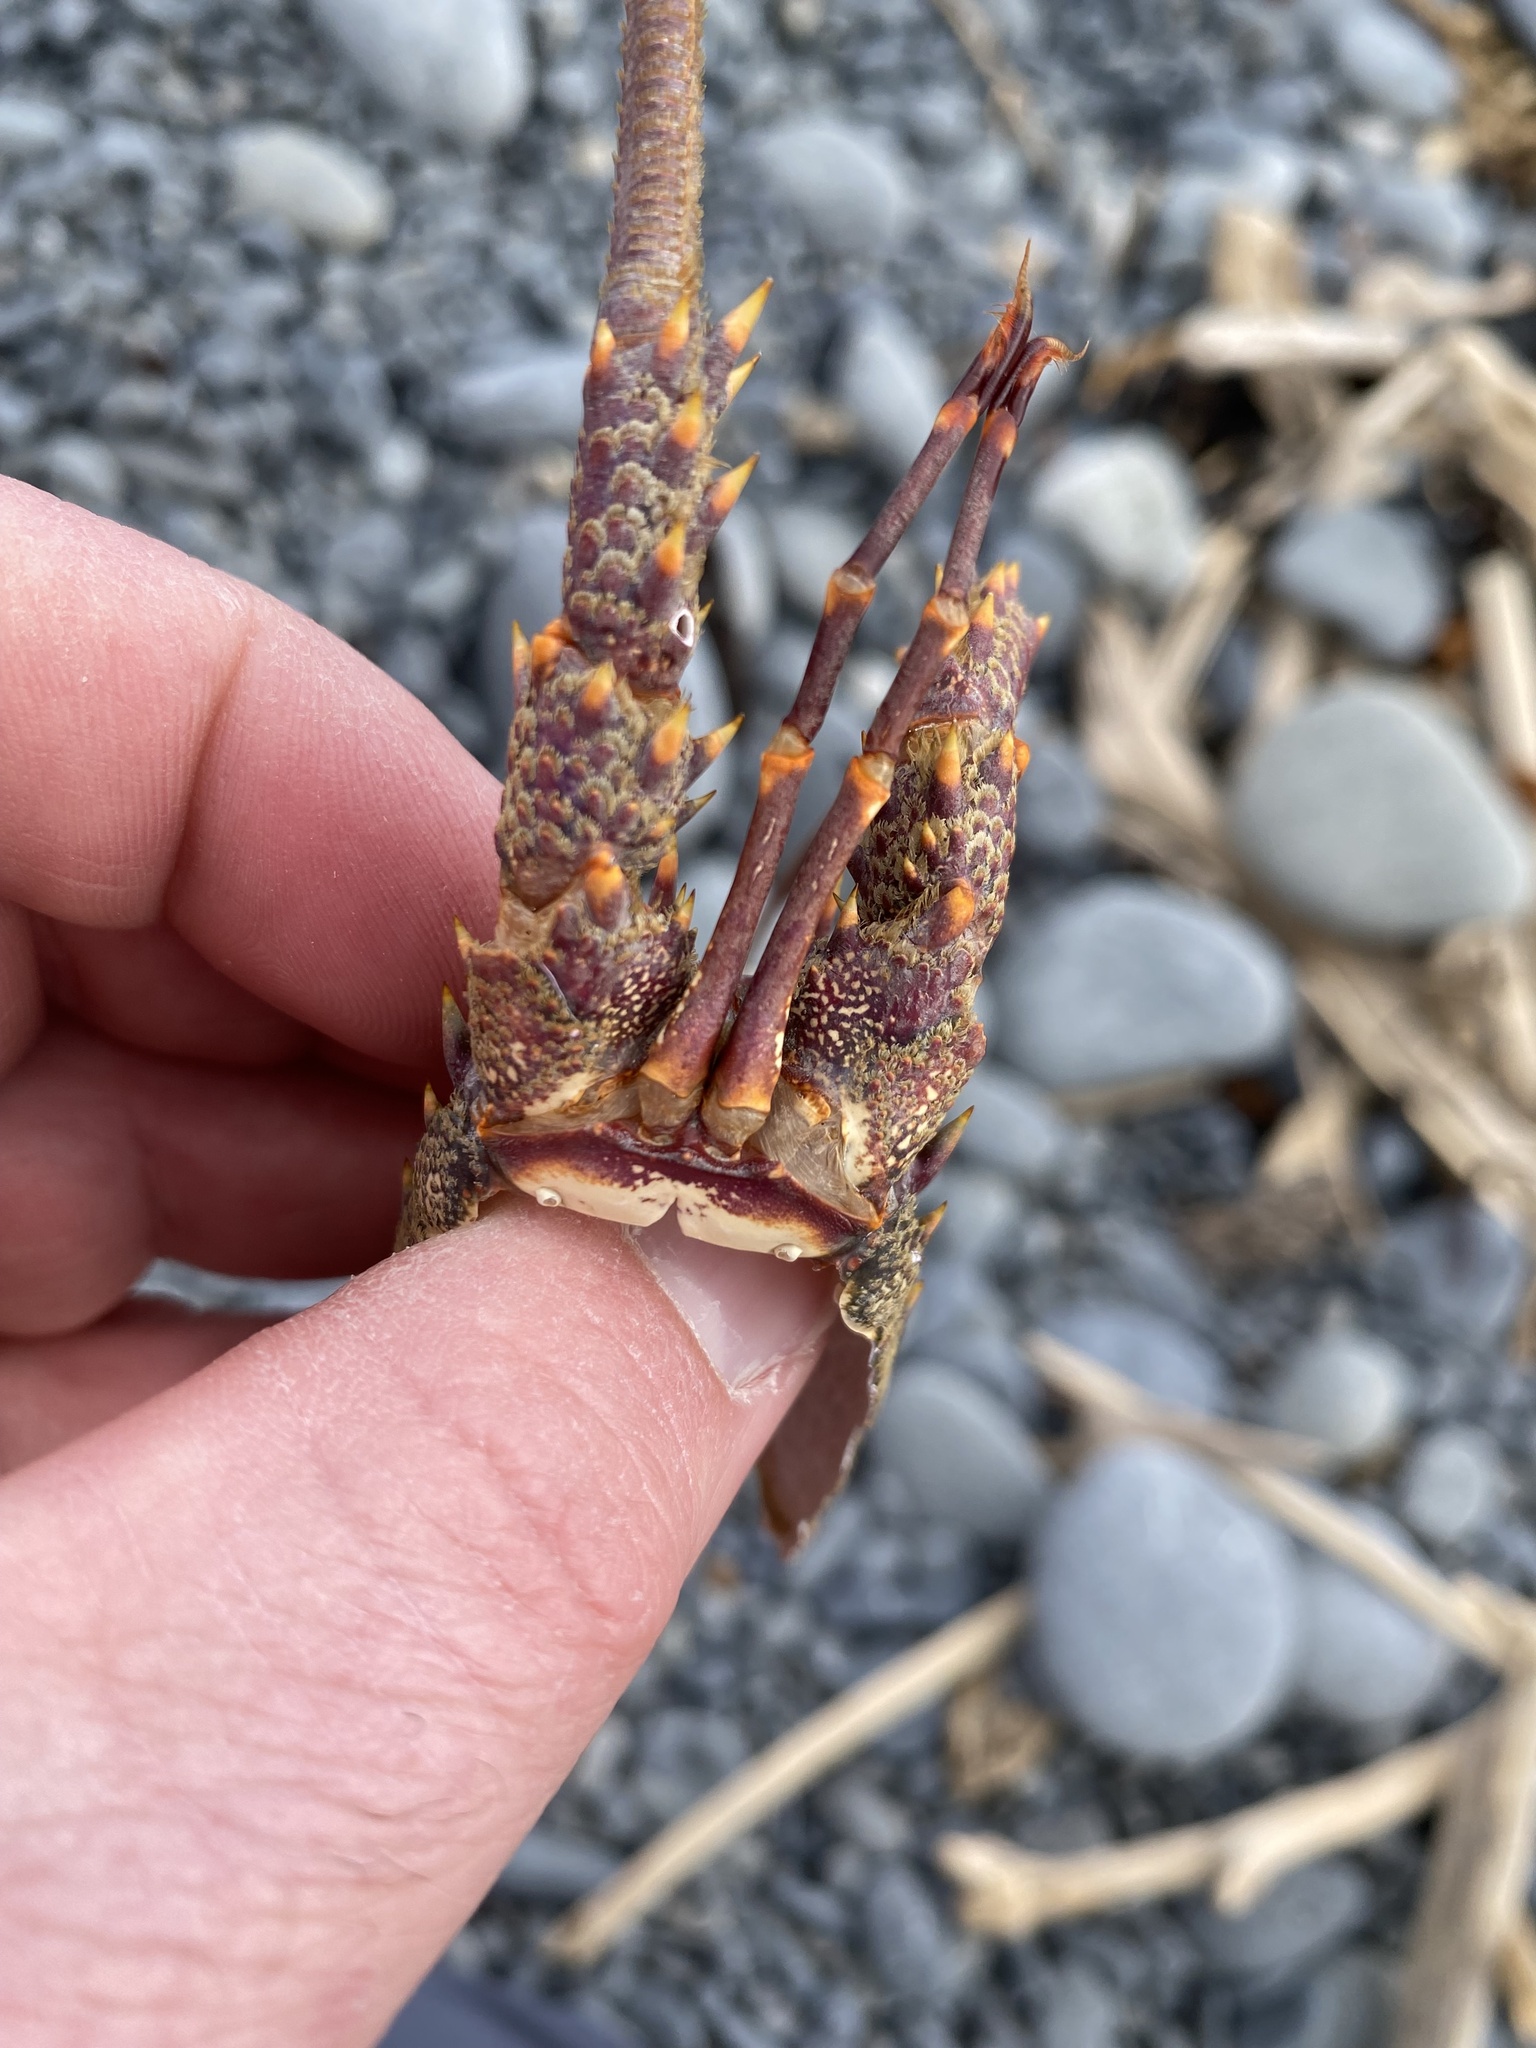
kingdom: Animalia
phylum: Arthropoda
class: Malacostraca
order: Decapoda
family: Palinuridae
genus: Jasus
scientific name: Jasus edwardsii
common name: Red rock lobster
